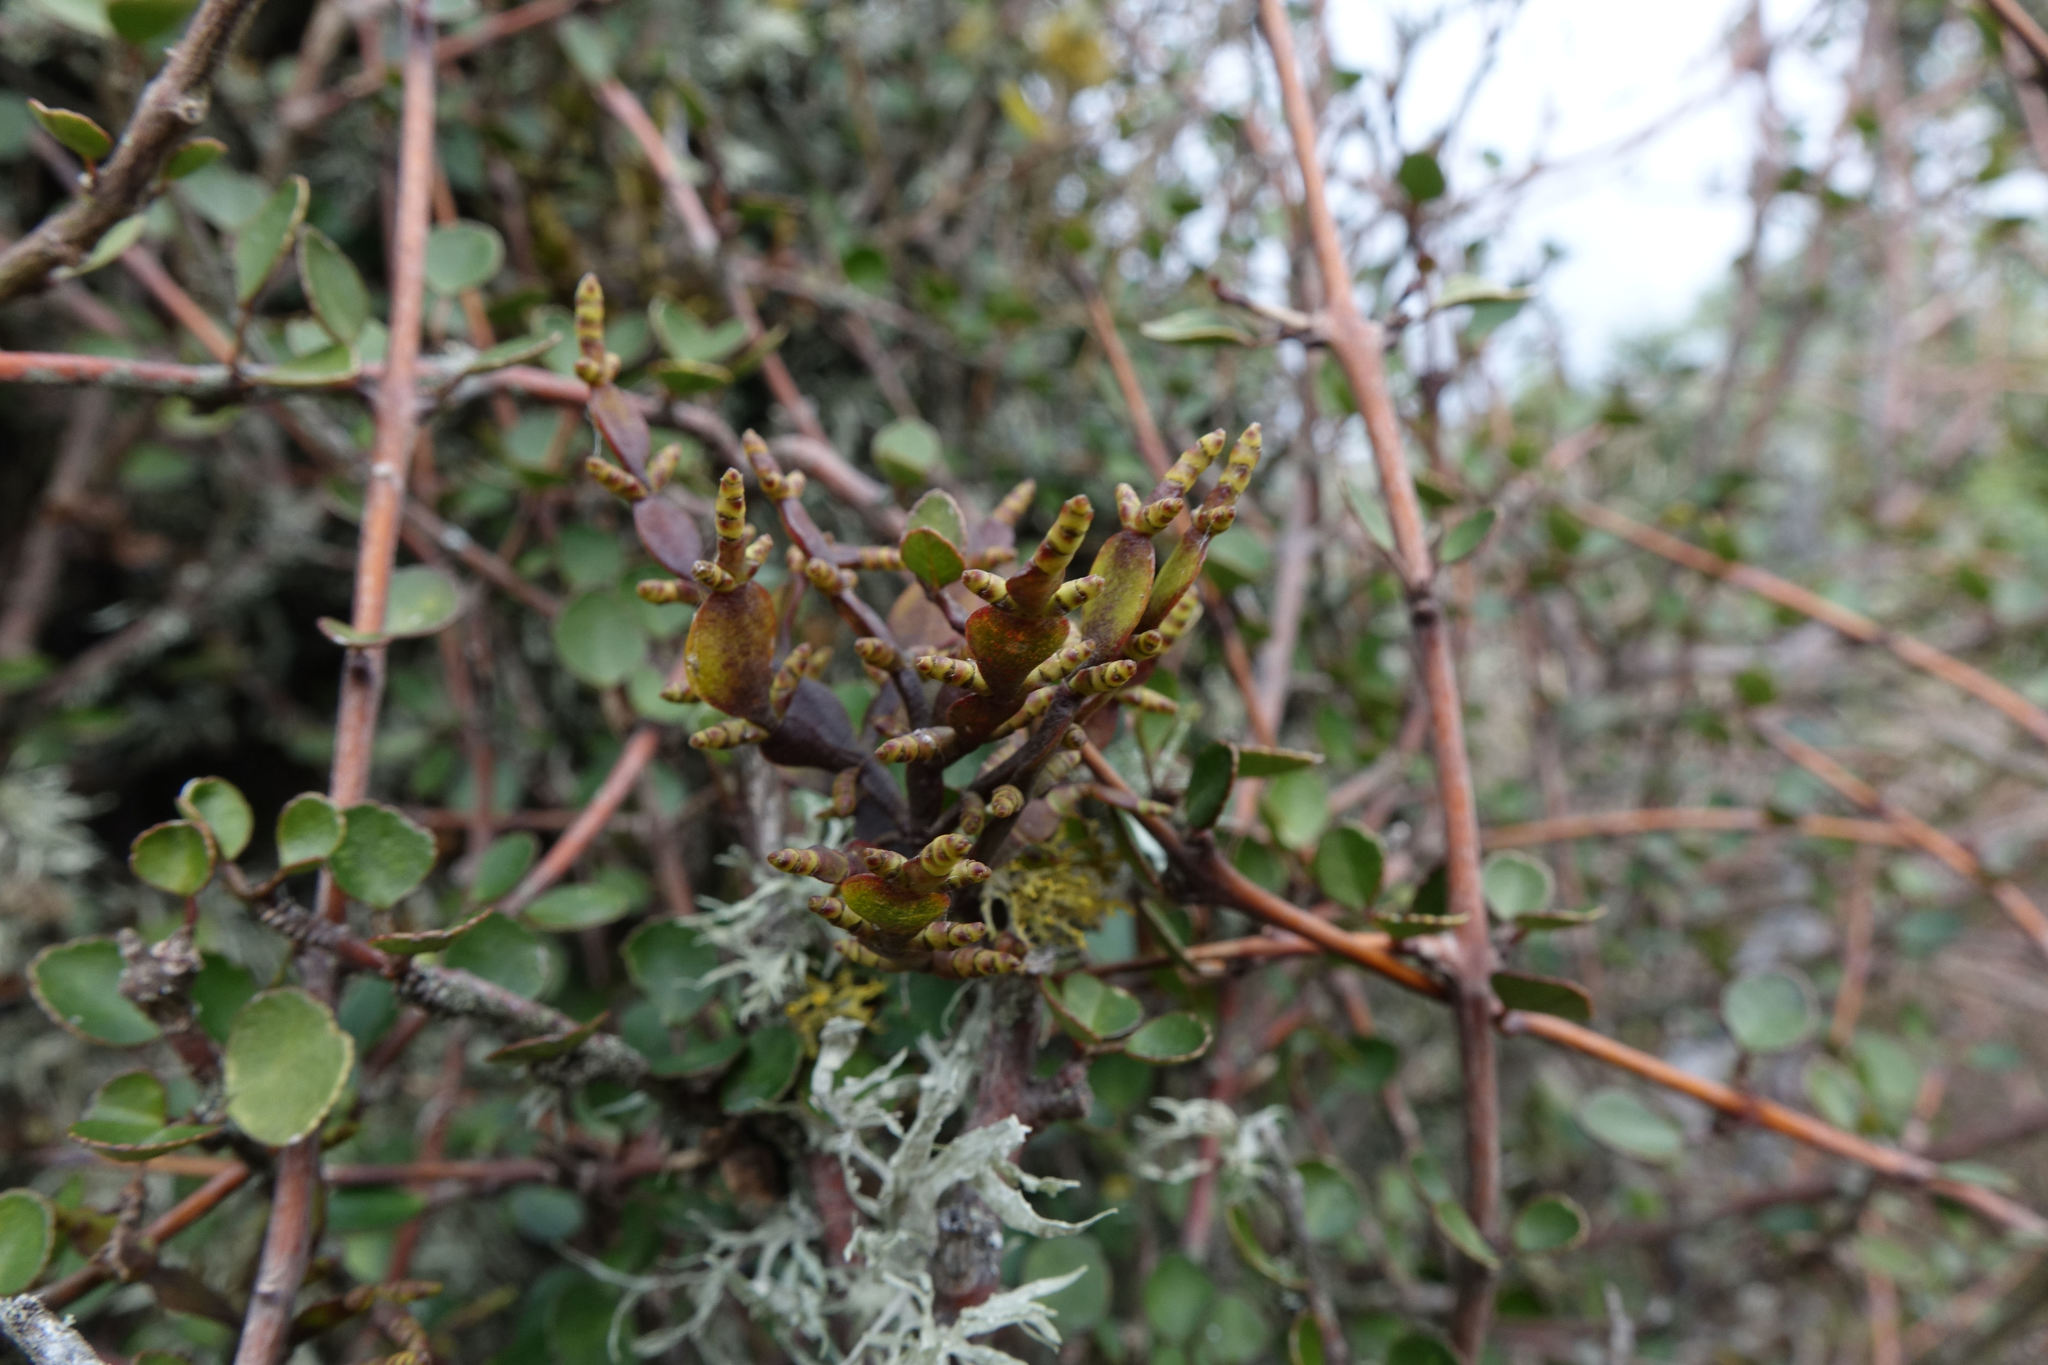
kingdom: Plantae
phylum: Tracheophyta
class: Magnoliopsida
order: Santalales
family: Viscaceae
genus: Korthalsella
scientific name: Korthalsella lindsayi
